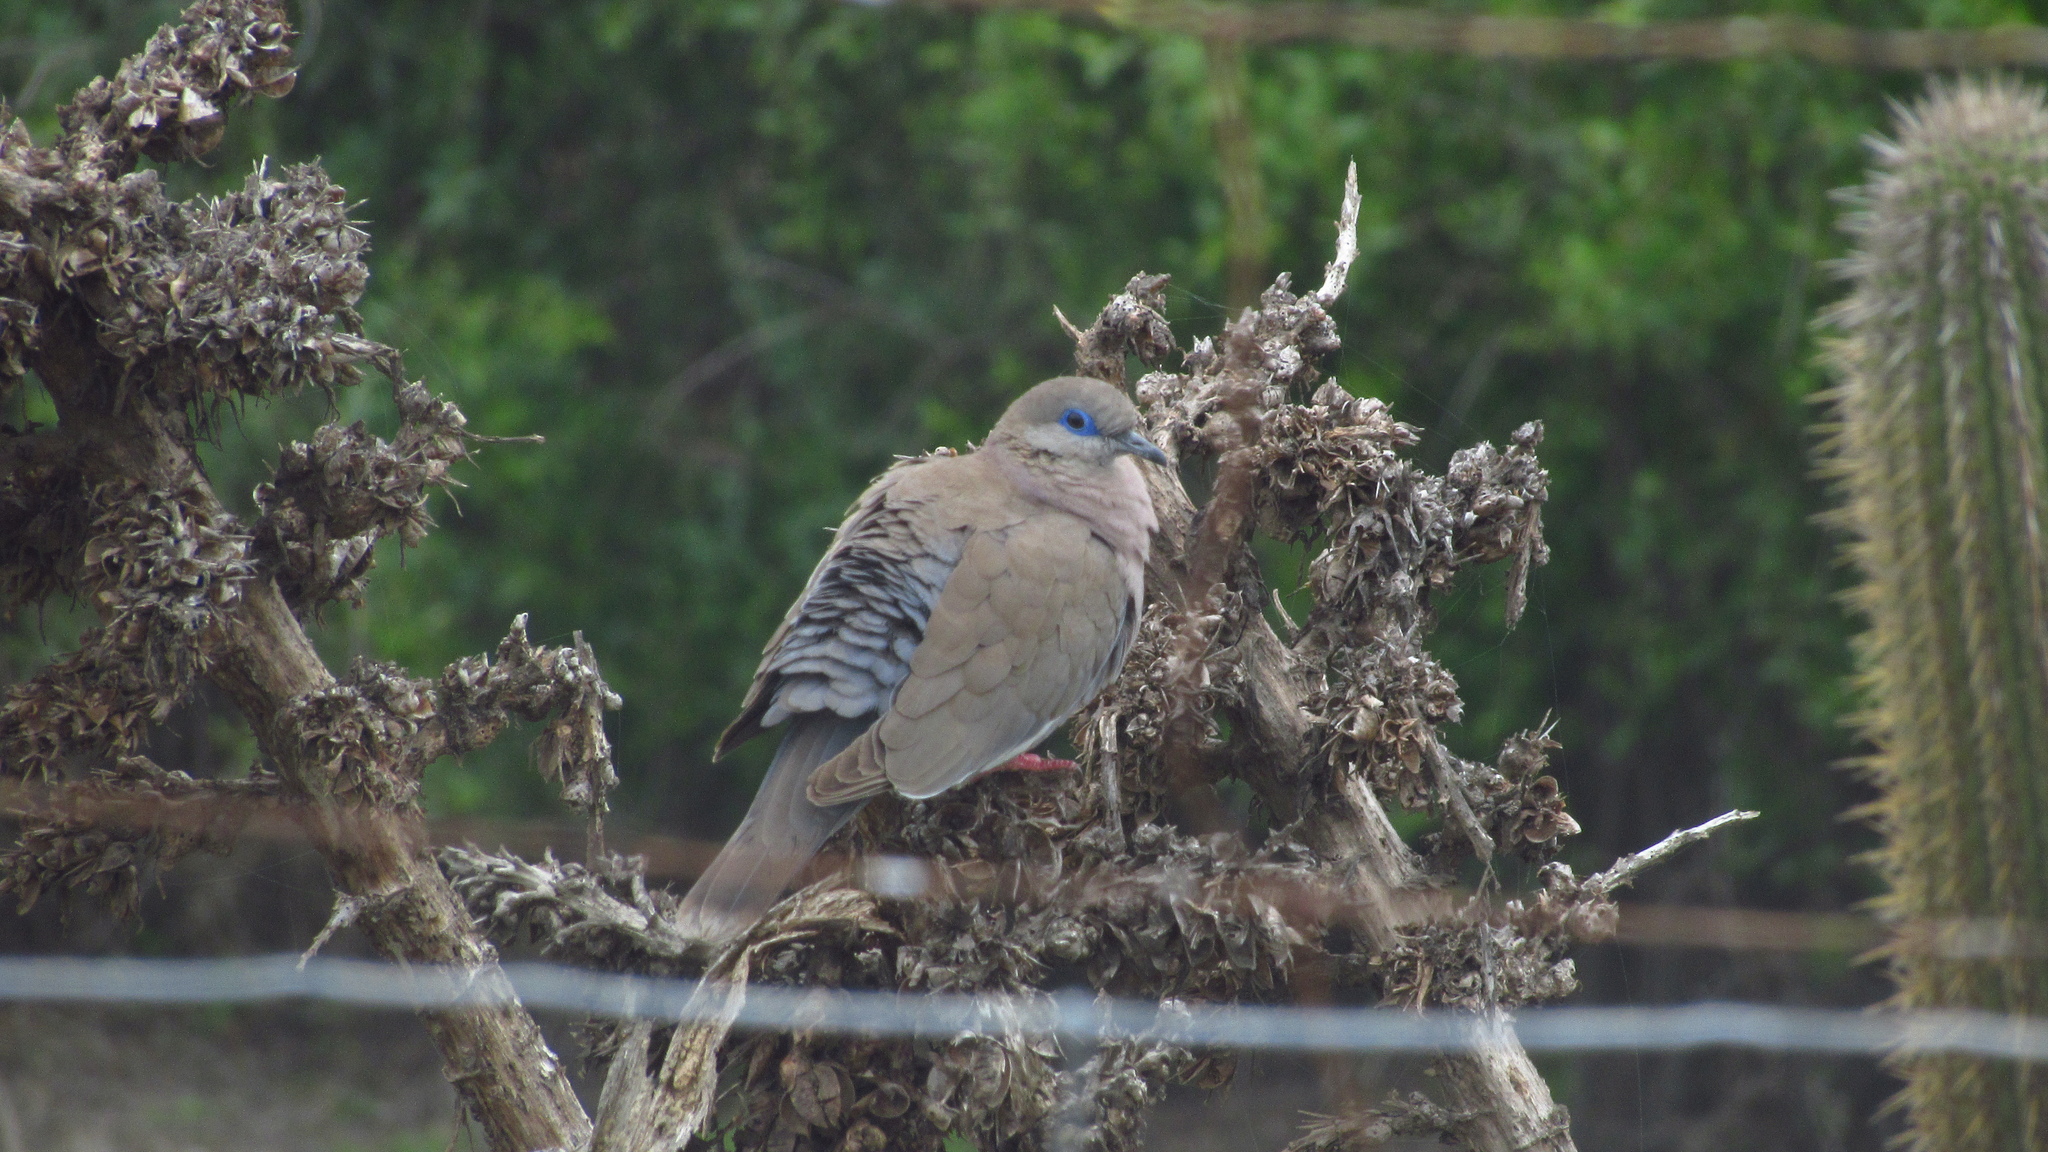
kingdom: Animalia
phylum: Chordata
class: Aves
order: Columbiformes
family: Columbidae
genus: Zenaida
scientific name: Zenaida meloda
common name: West peruvian dove
